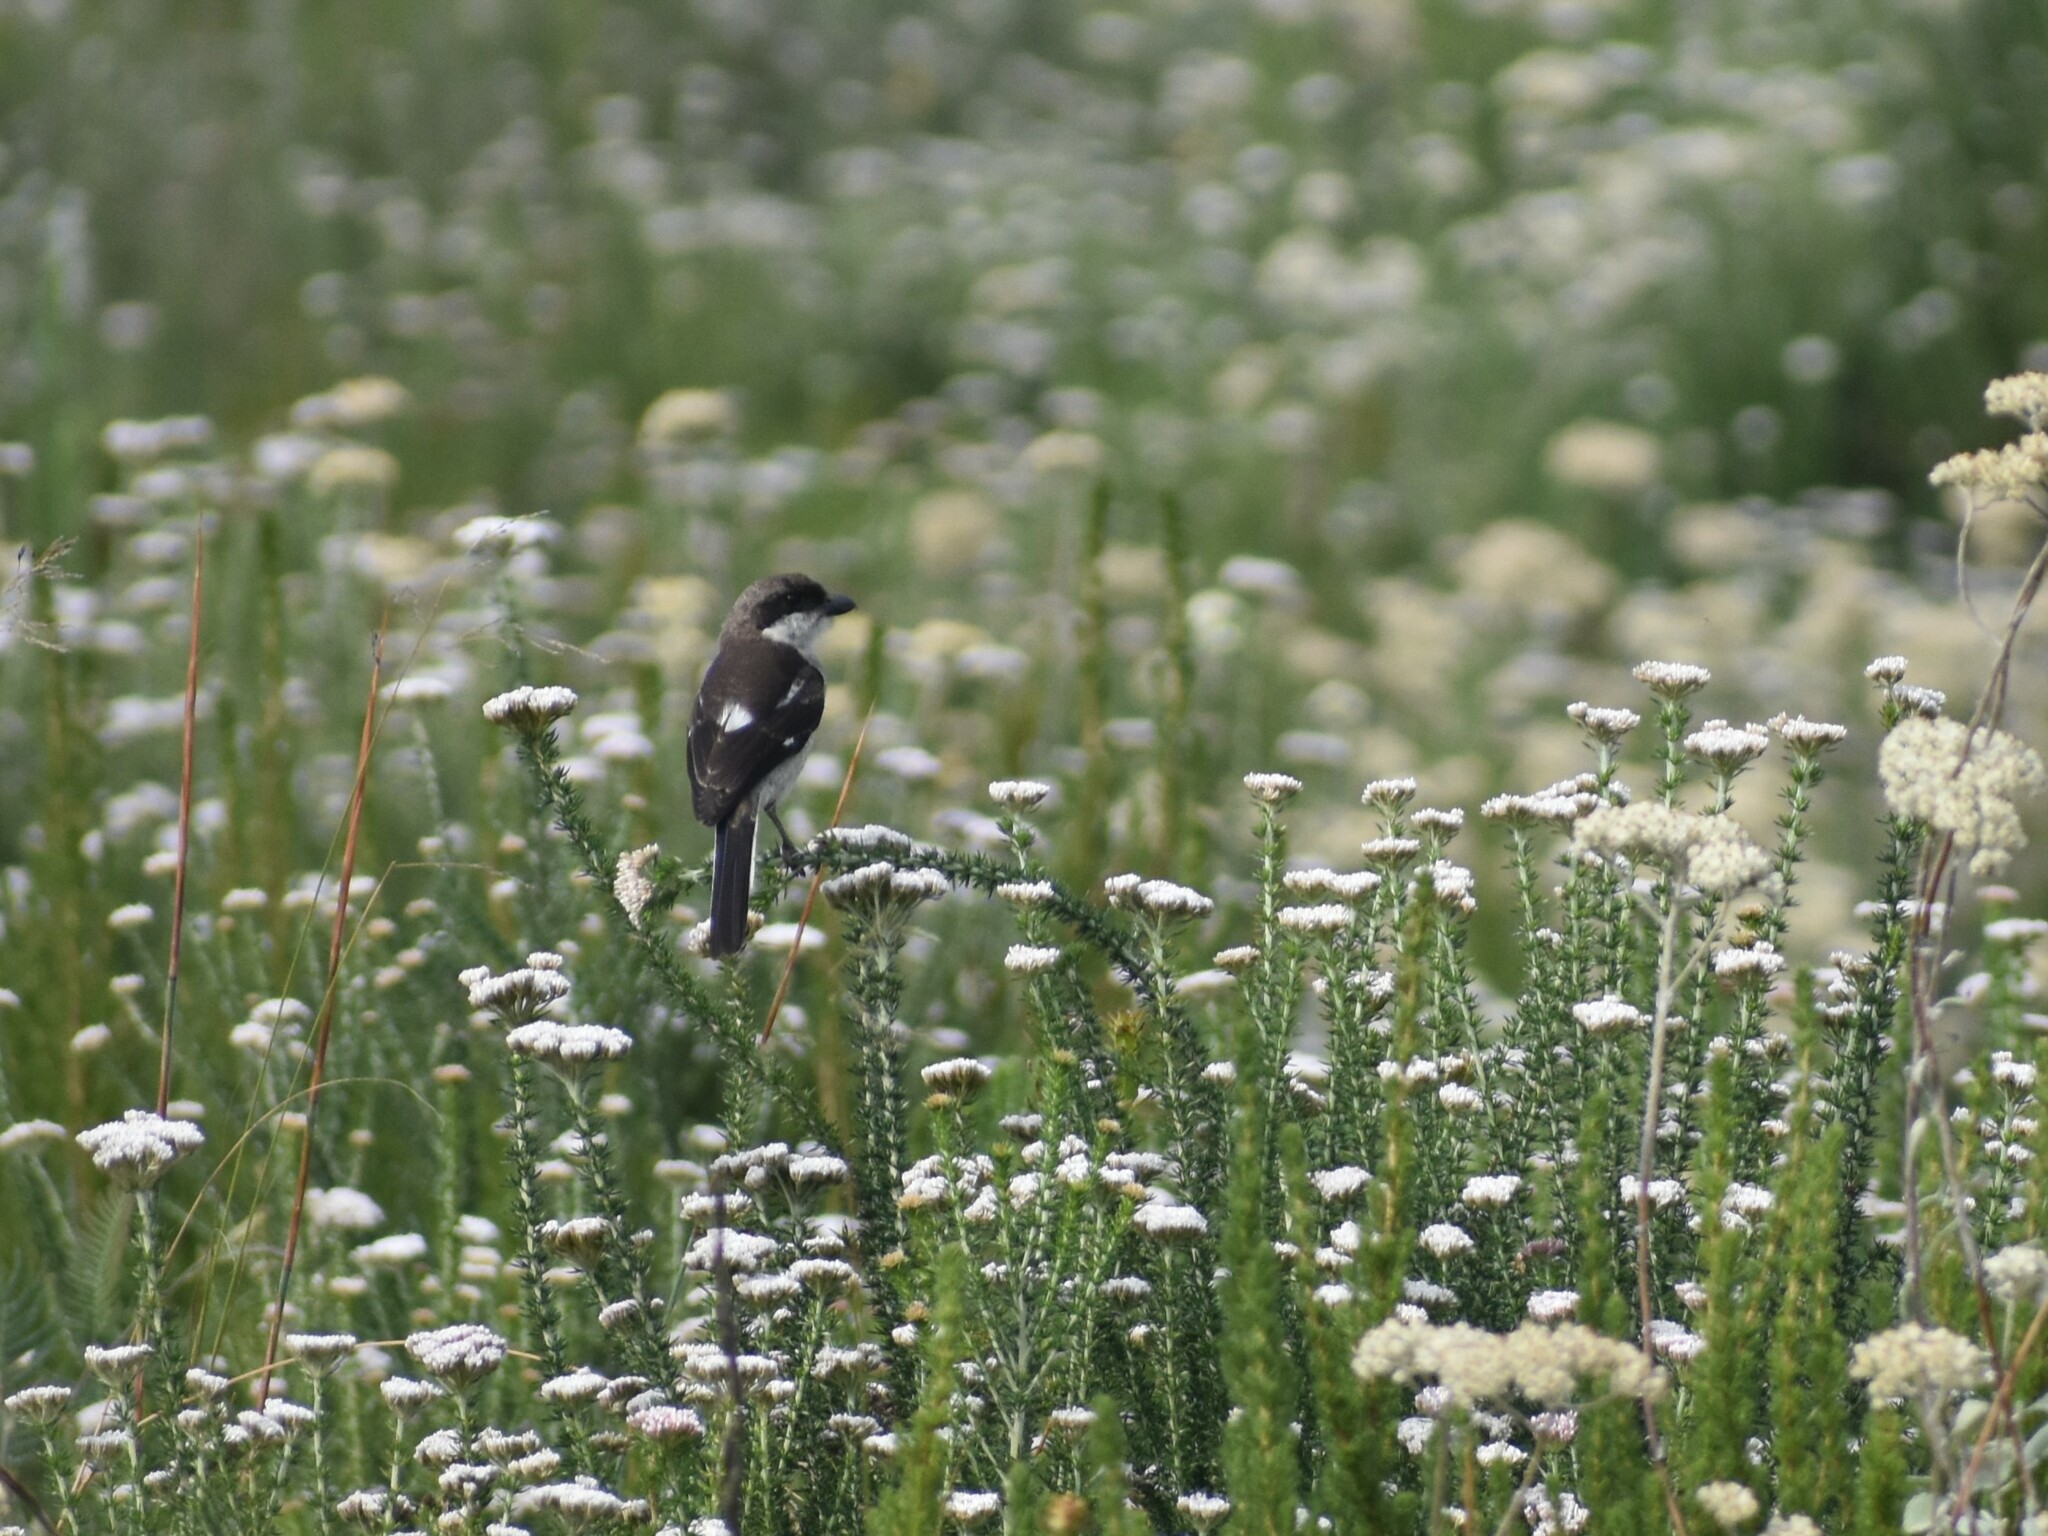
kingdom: Animalia
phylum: Chordata
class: Aves
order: Passeriformes
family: Laniidae
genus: Lanius
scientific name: Lanius collaris
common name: Southern fiscal
